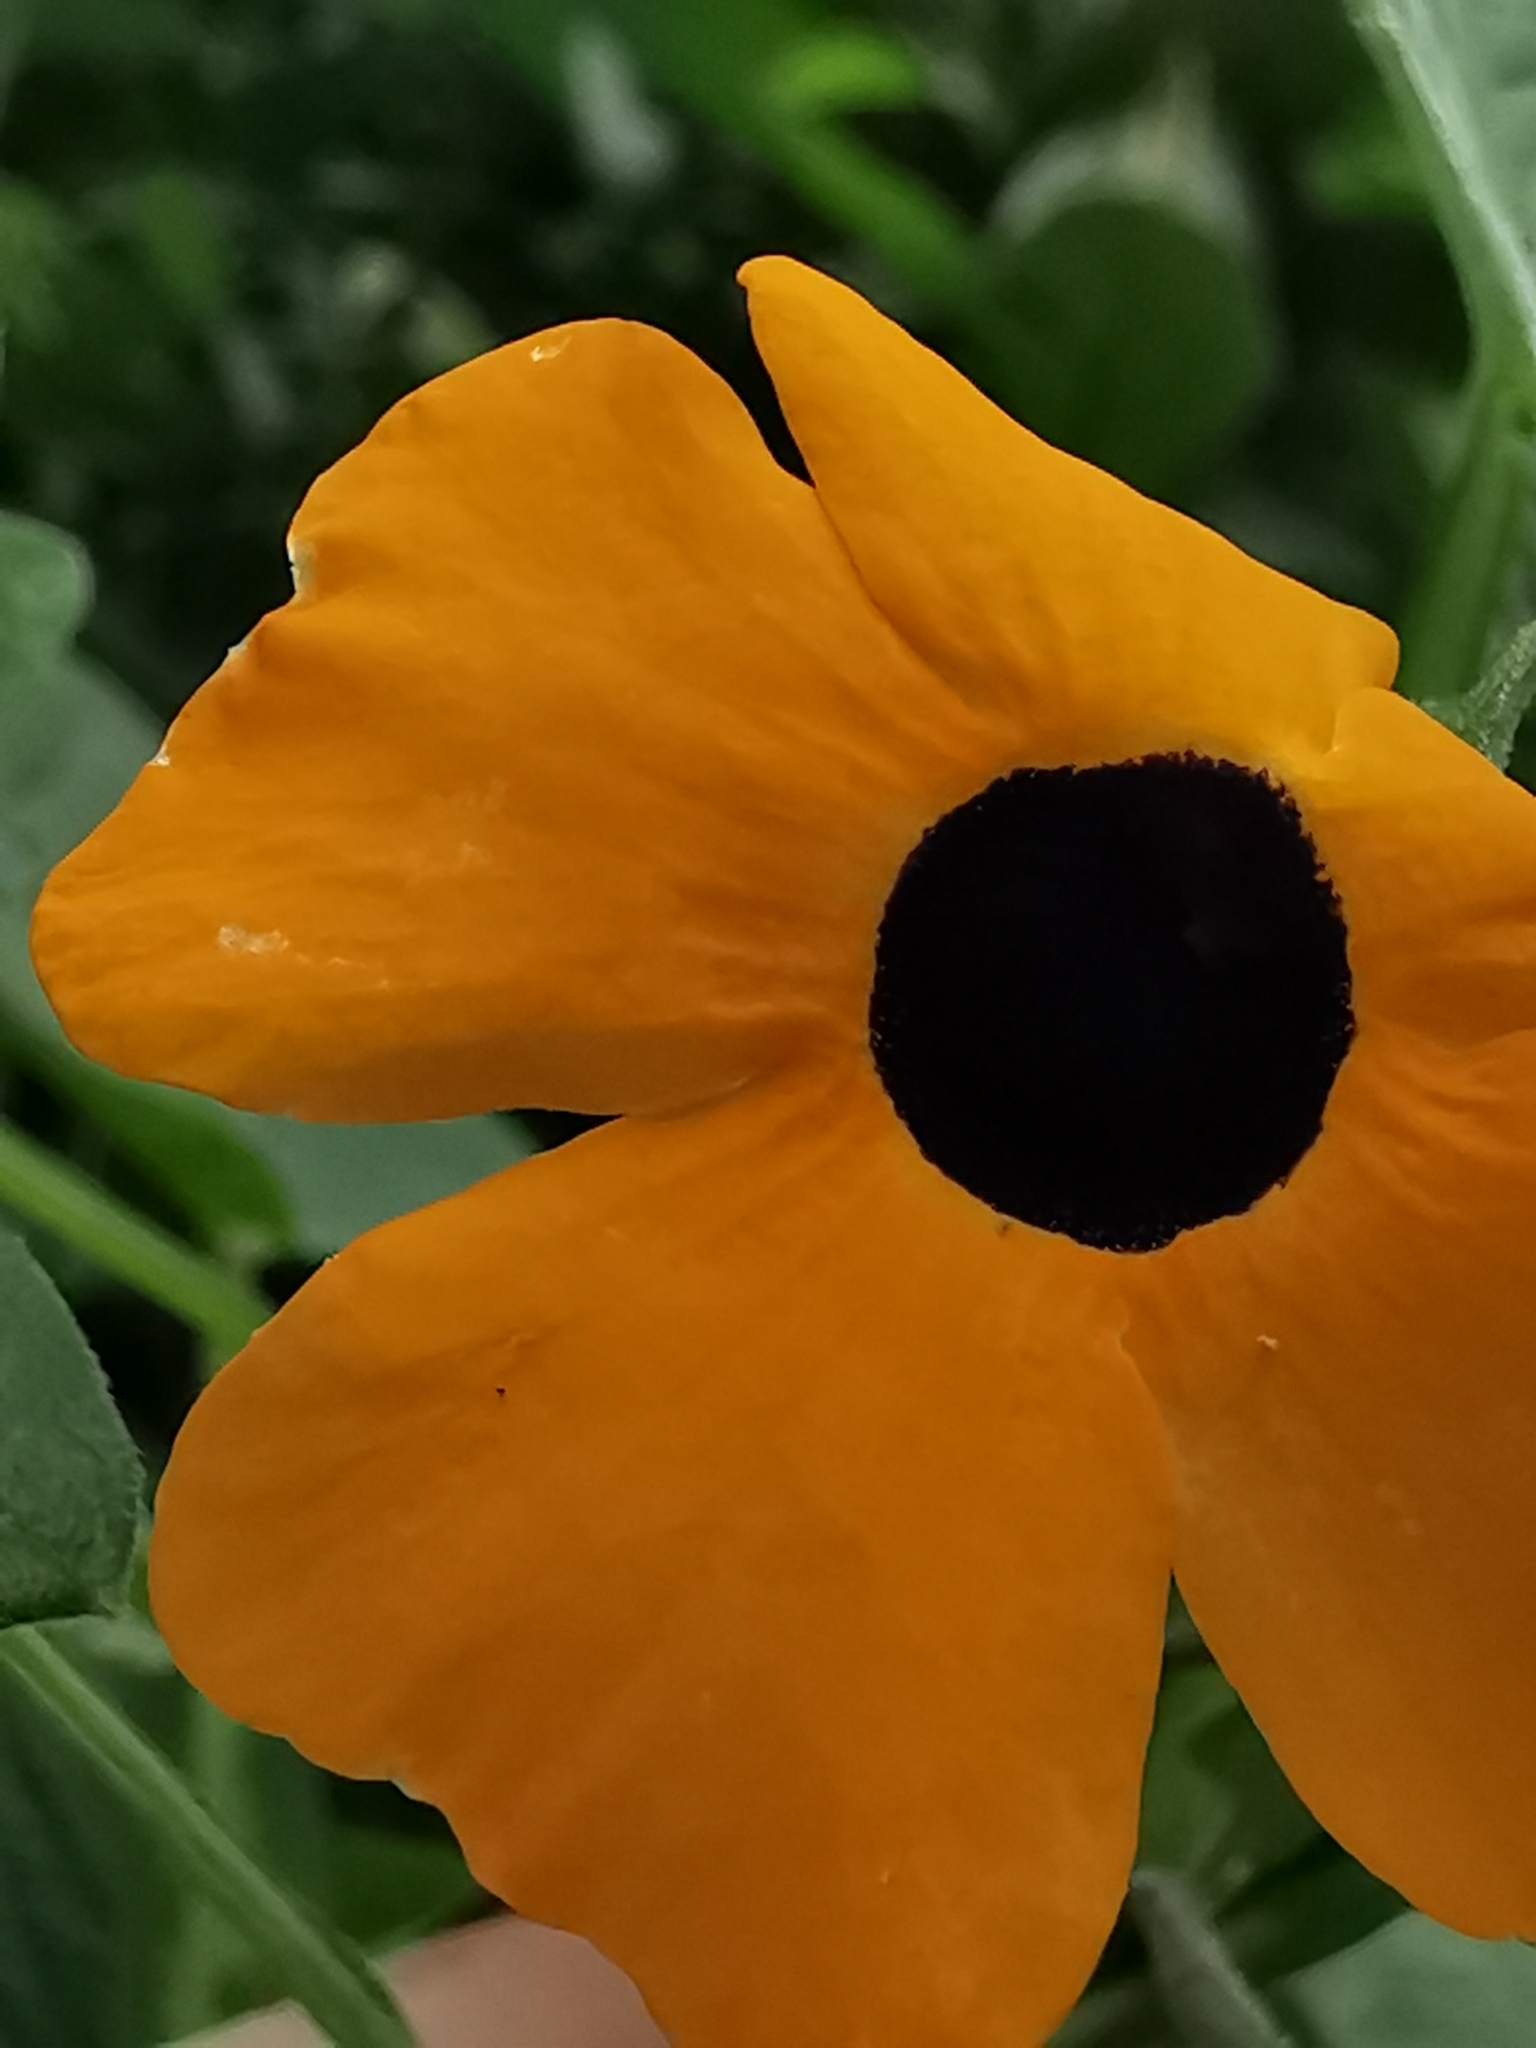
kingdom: Plantae
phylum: Tracheophyta
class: Magnoliopsida
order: Lamiales
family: Acanthaceae
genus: Thunbergia
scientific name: Thunbergia alata
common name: Blackeyed susan vine
